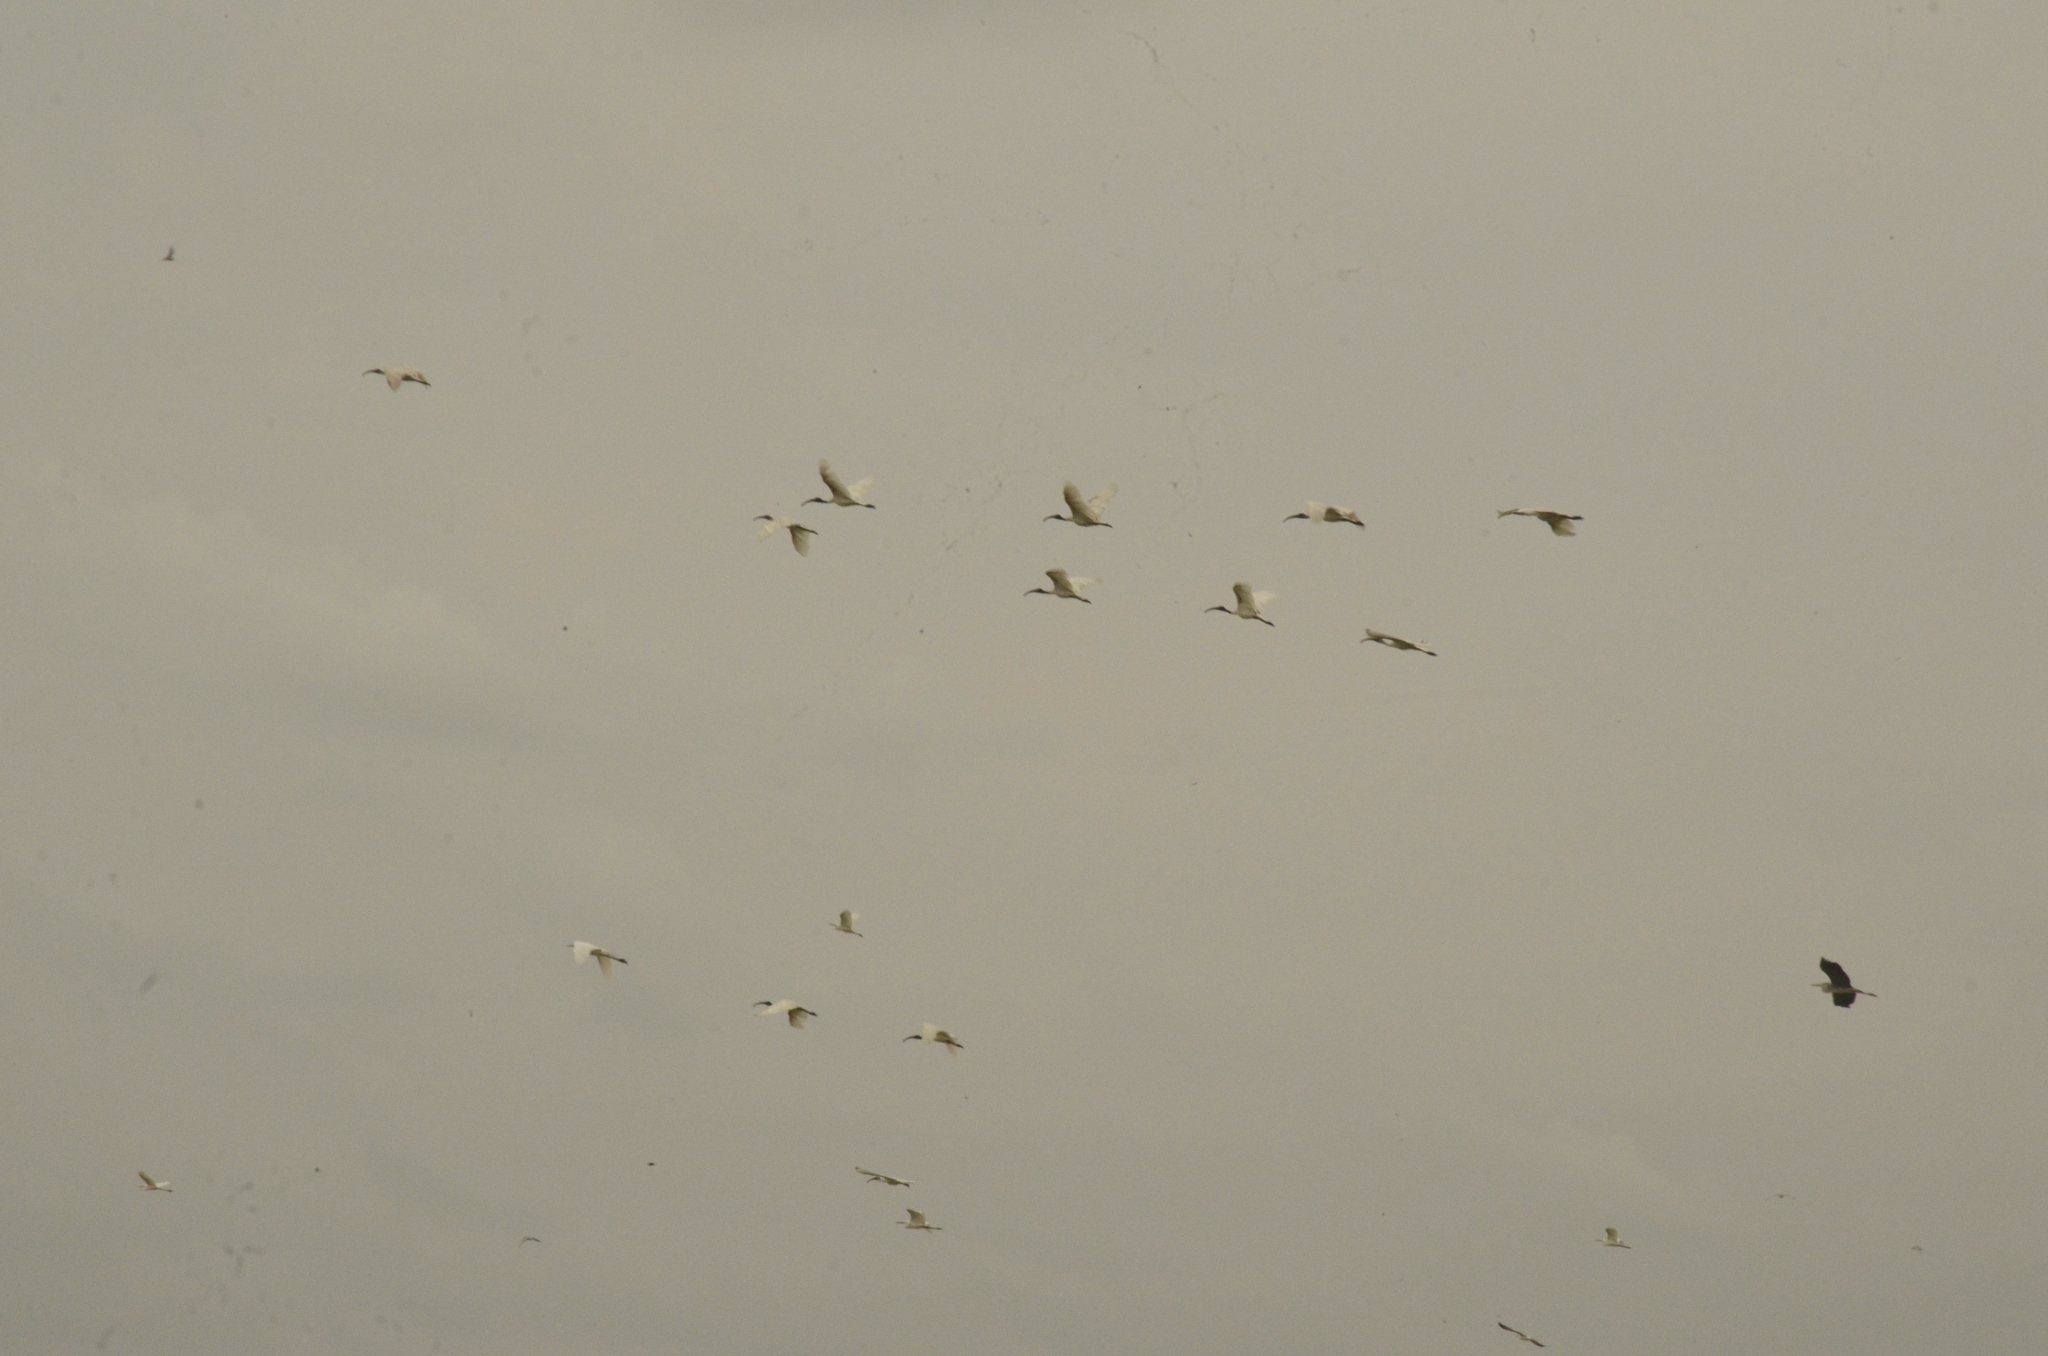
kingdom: Animalia
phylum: Chordata
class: Aves
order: Pelecaniformes
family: Threskiornithidae
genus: Threskiornis
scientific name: Threskiornis melanocephalus
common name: Black-headed ibis
